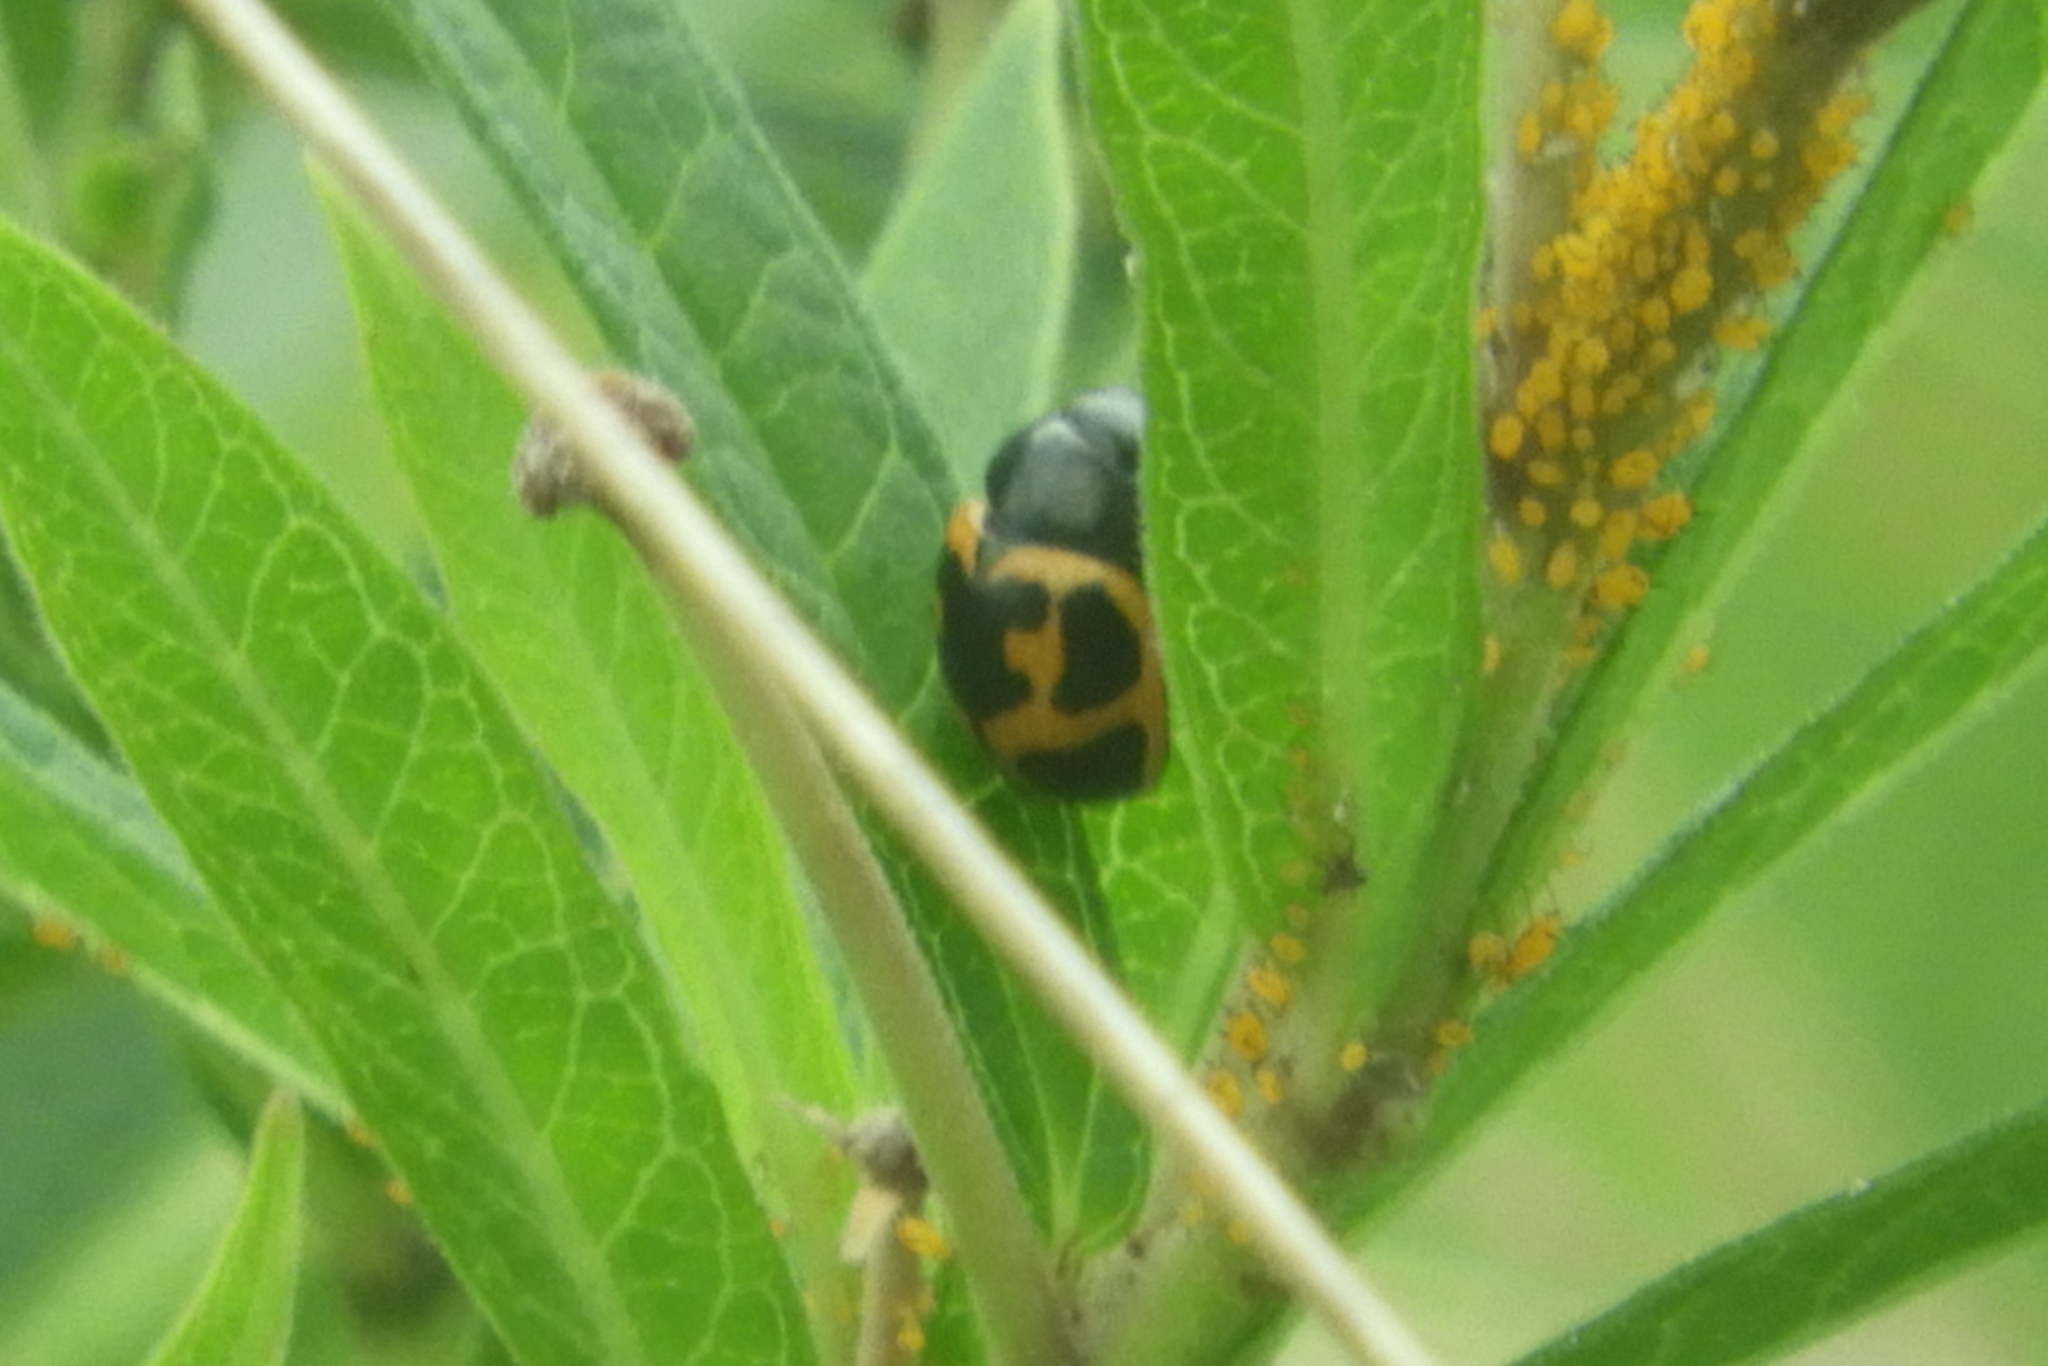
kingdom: Animalia
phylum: Arthropoda
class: Insecta
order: Coleoptera
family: Chrysomelidae
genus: Labidomera
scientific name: Labidomera clivicollis
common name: Swamp milkweed leaf beetle
